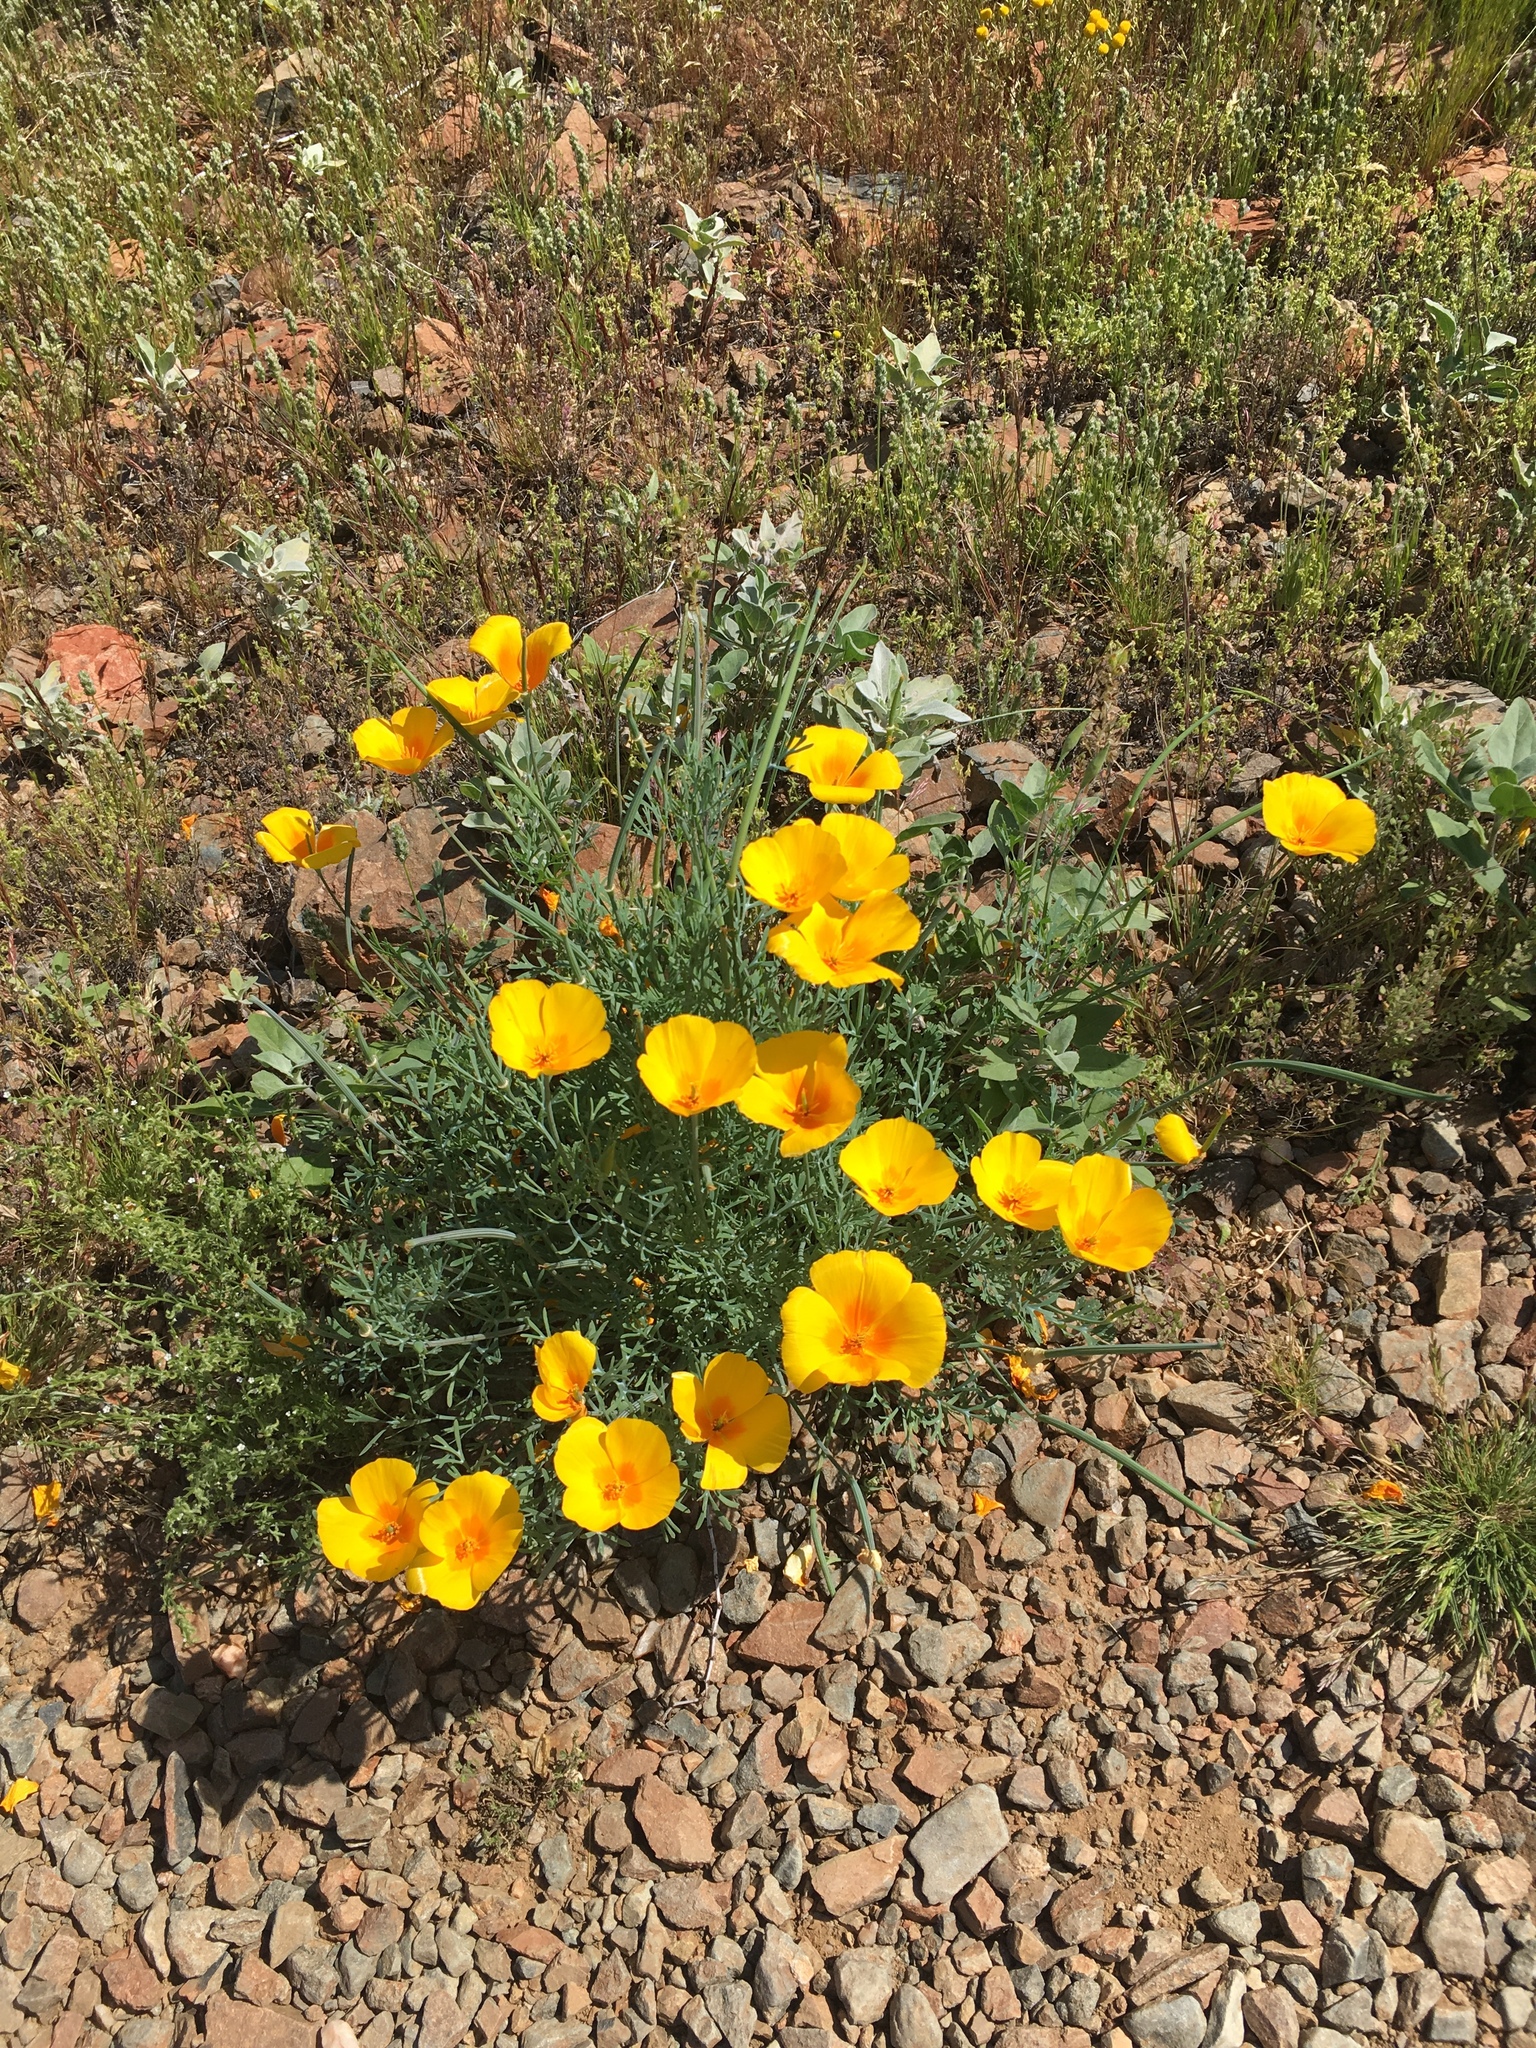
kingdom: Plantae
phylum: Tracheophyta
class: Magnoliopsida
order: Ranunculales
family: Papaveraceae
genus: Eschscholzia
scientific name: Eschscholzia californica
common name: California poppy
